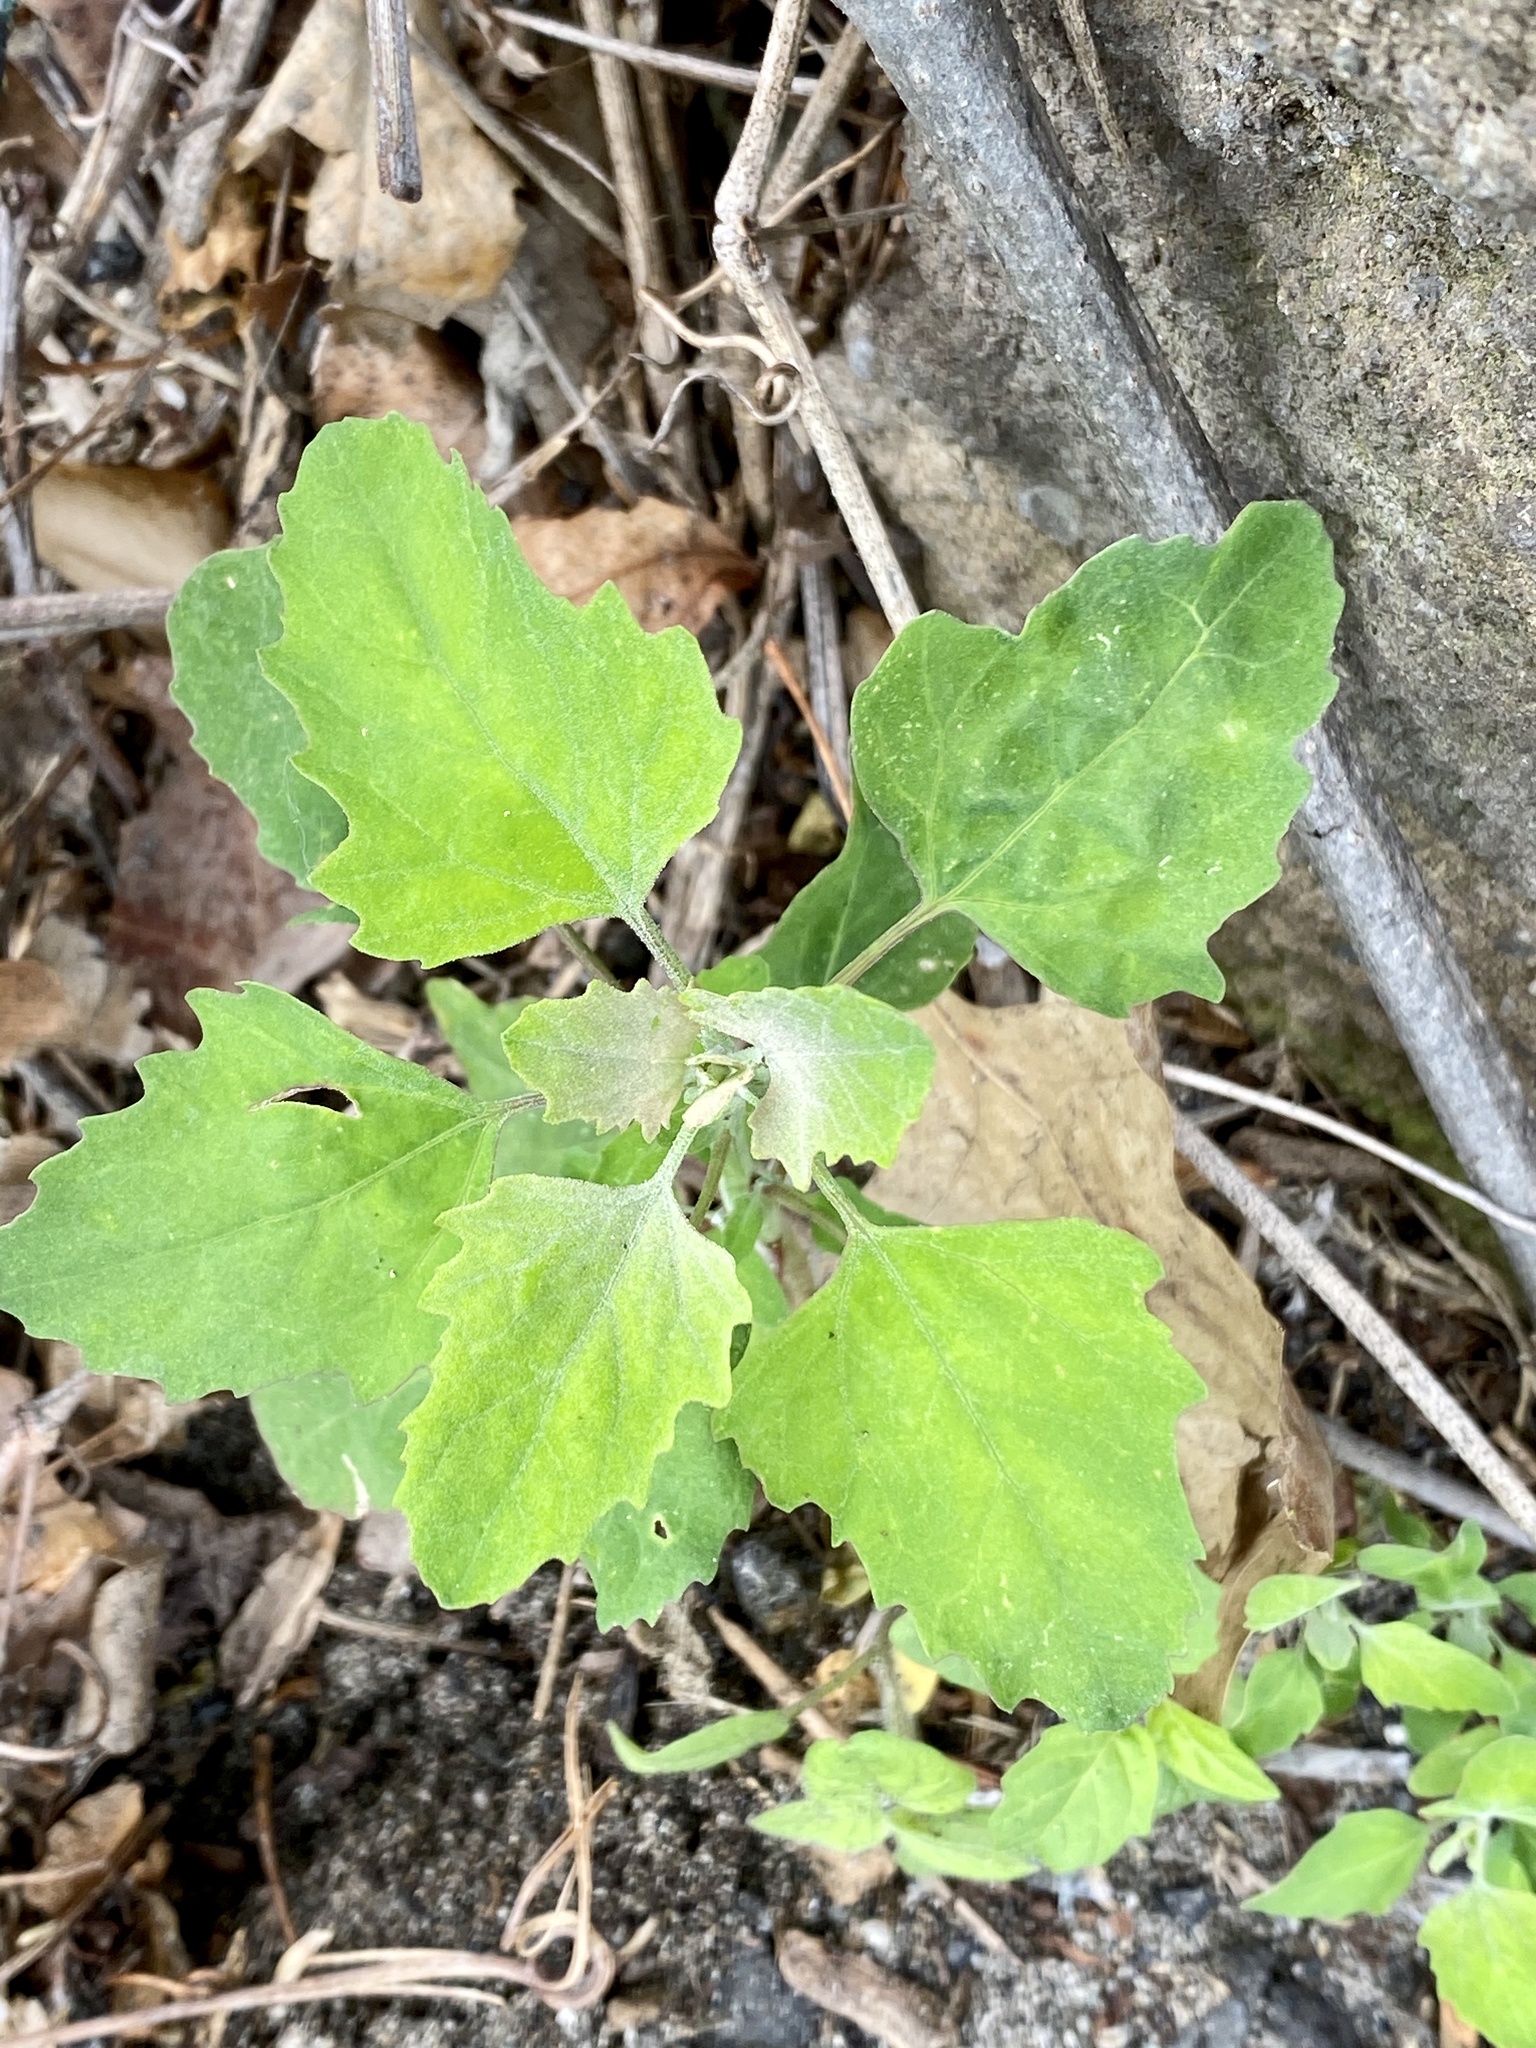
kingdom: Plantae
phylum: Tracheophyta
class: Magnoliopsida
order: Caryophyllales
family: Amaranthaceae
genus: Chenopodium
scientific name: Chenopodium album
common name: Fat-hen
